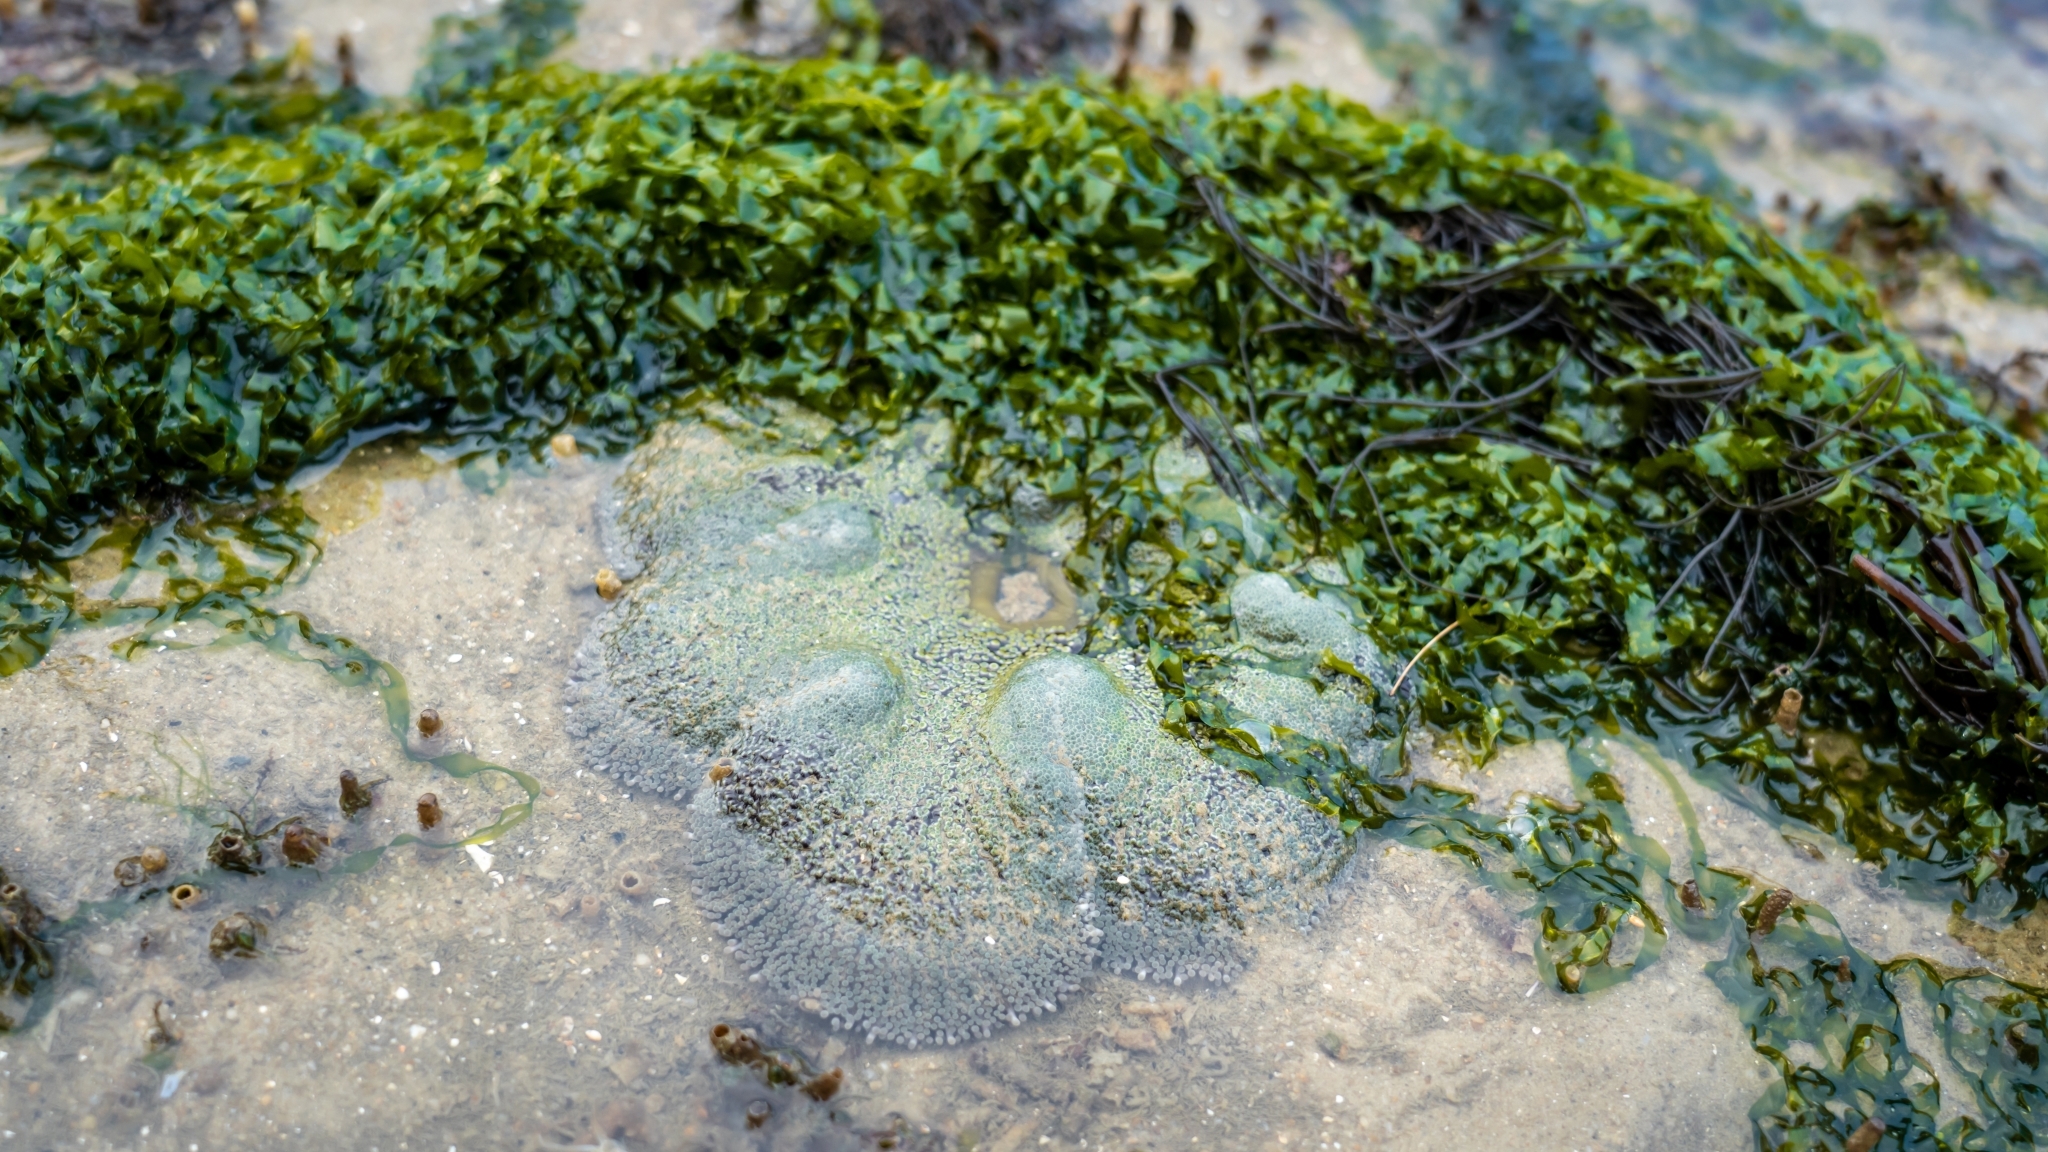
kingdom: Animalia
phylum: Cnidaria
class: Anthozoa
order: Actiniaria
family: Stichodactylidae
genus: Stichodactyla
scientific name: Stichodactyla haddoni
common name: Haddon's sea anemone
